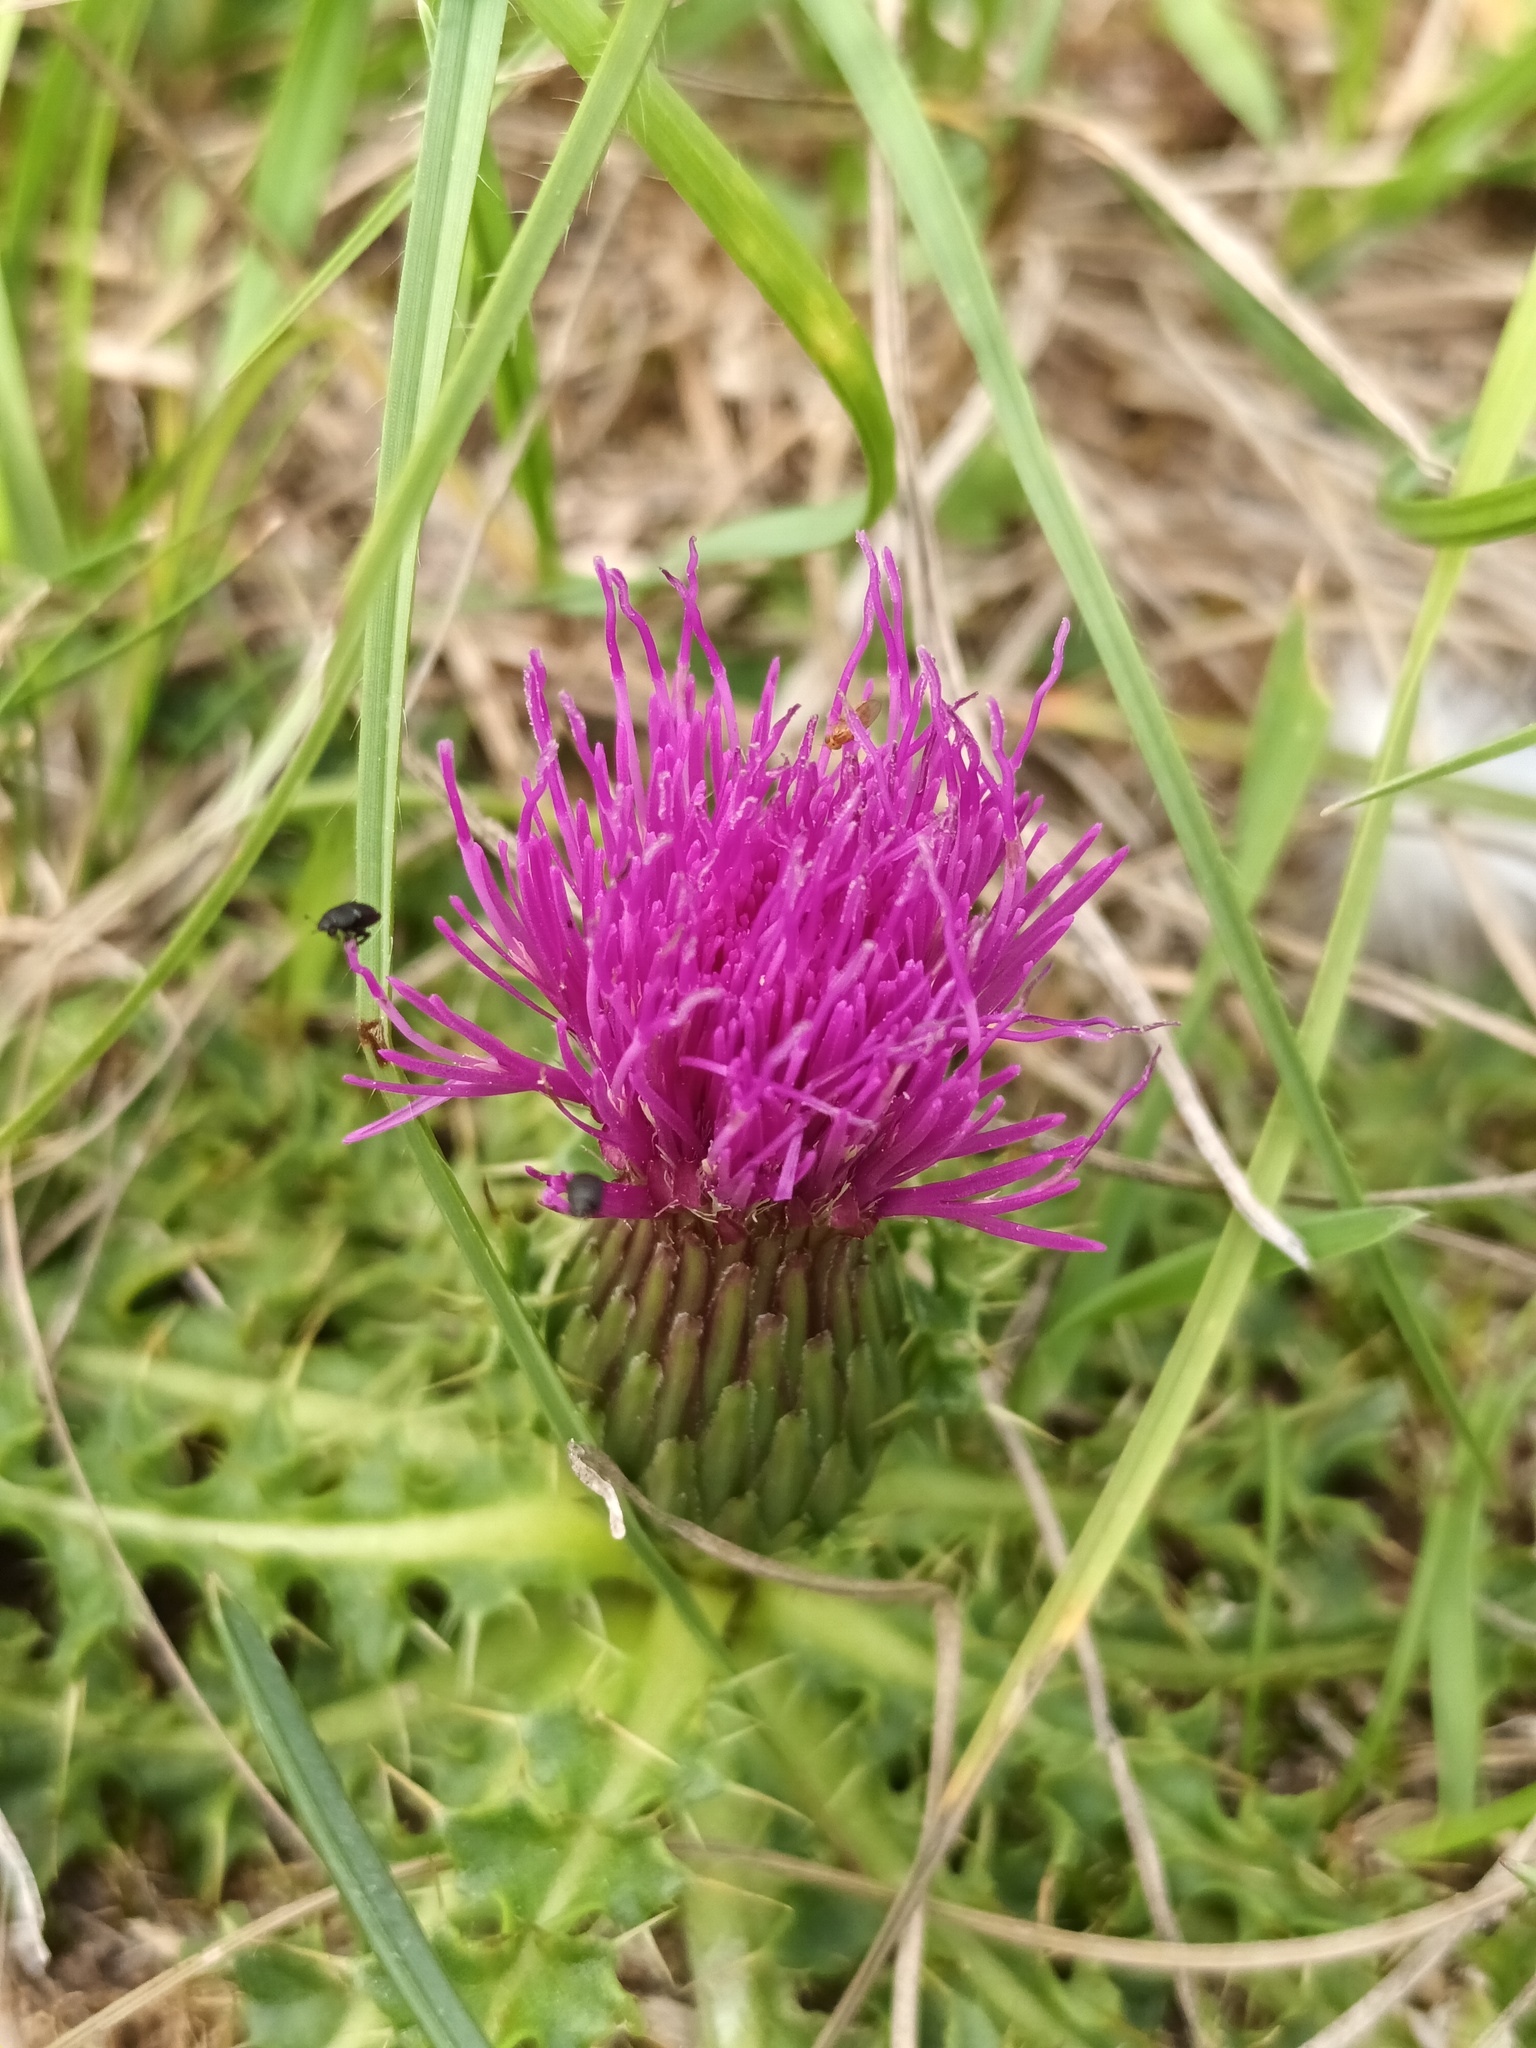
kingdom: Plantae
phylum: Tracheophyta
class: Magnoliopsida
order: Asterales
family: Asteraceae
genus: Cirsium
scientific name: Cirsium acaulon
